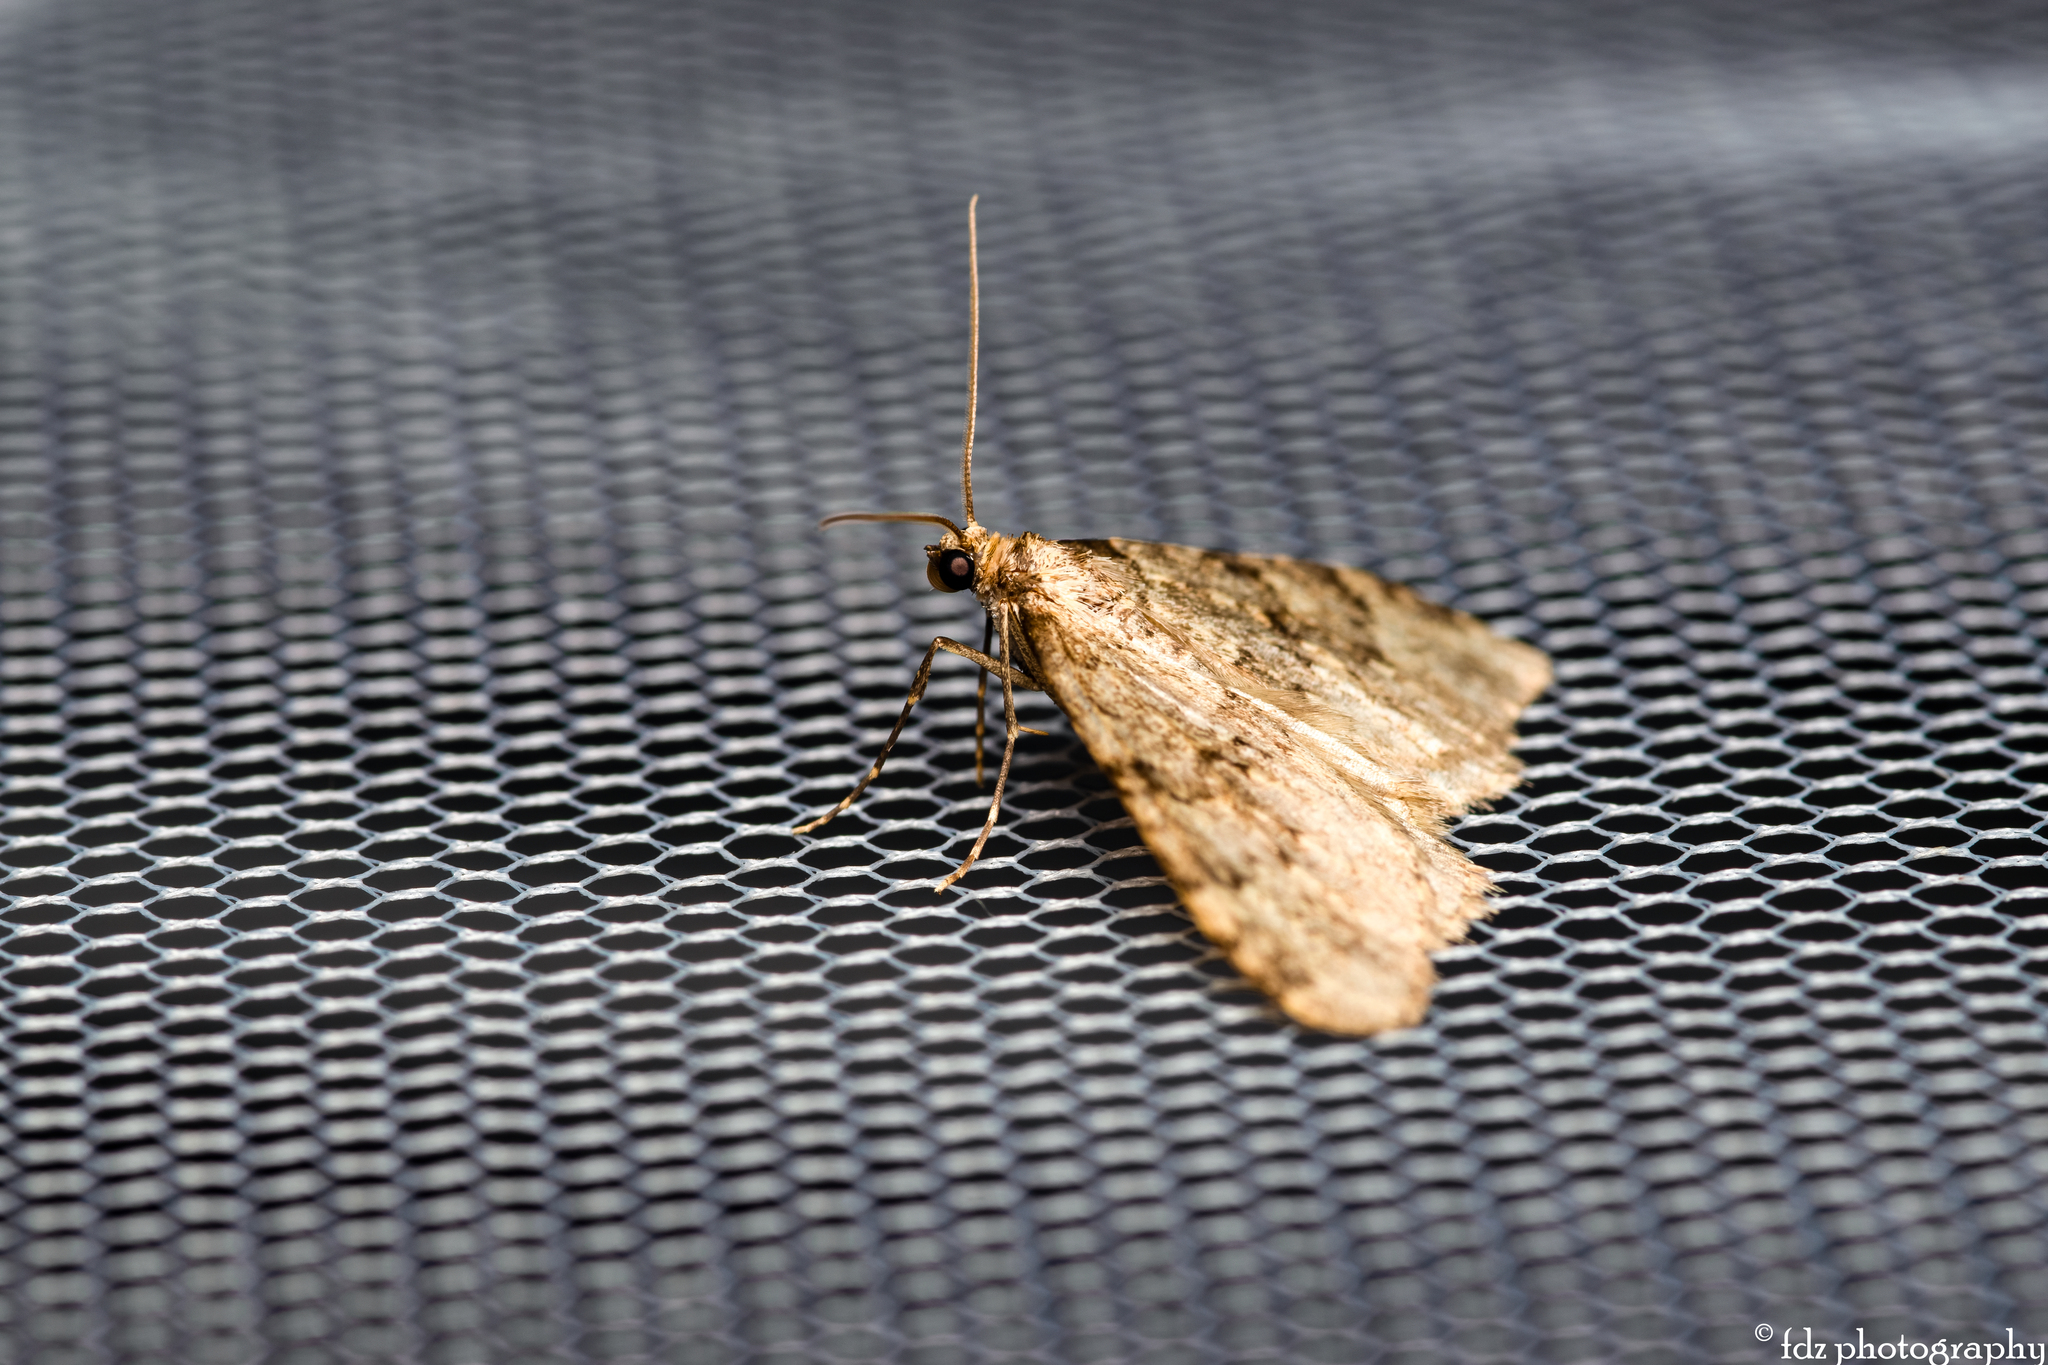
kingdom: Animalia
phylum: Arthropoda
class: Insecta
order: Lepidoptera
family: Geometridae
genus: Nebula
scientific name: Nebula ibericata
